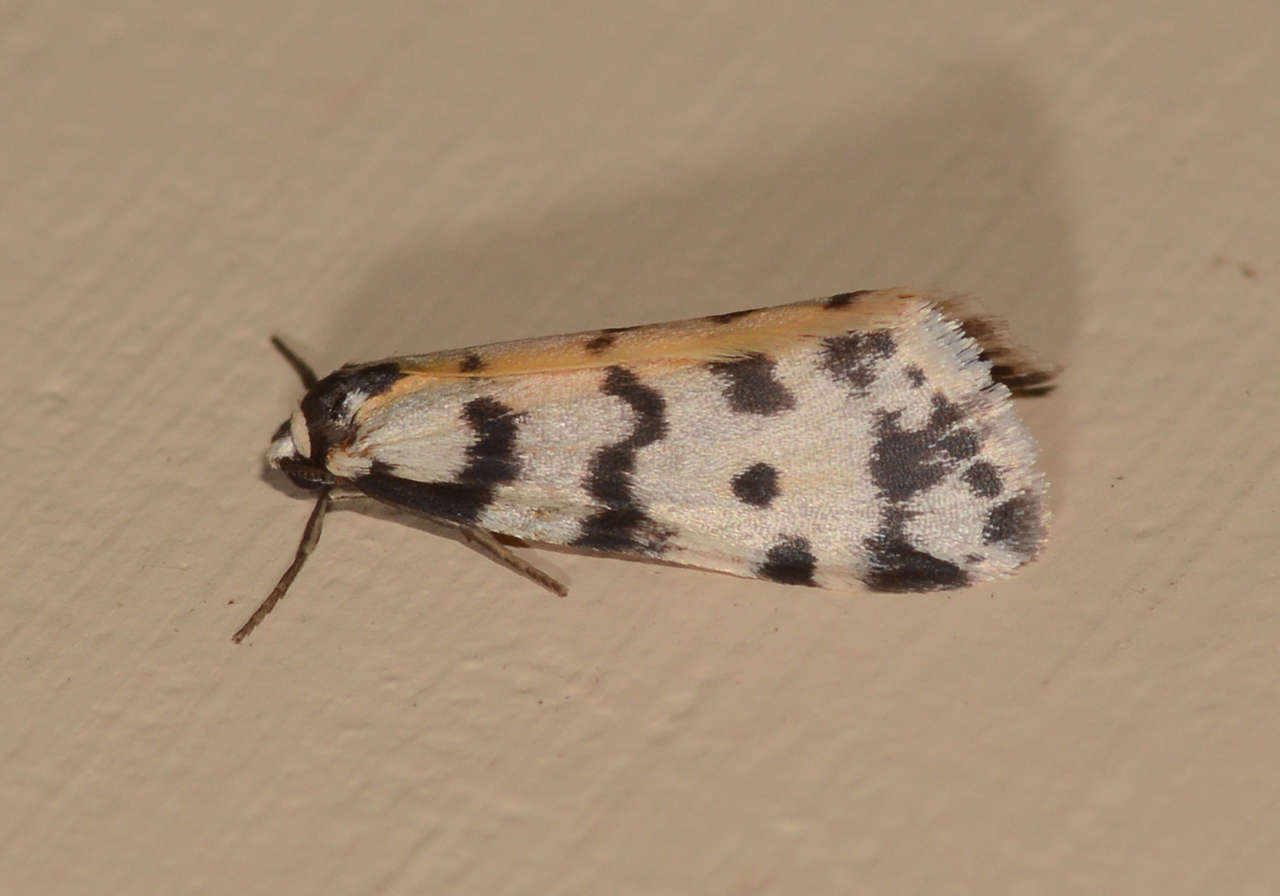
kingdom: Animalia
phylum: Arthropoda
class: Insecta
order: Lepidoptera
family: Erebidae
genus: Thallarcha
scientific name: Thallarcha jocularis
